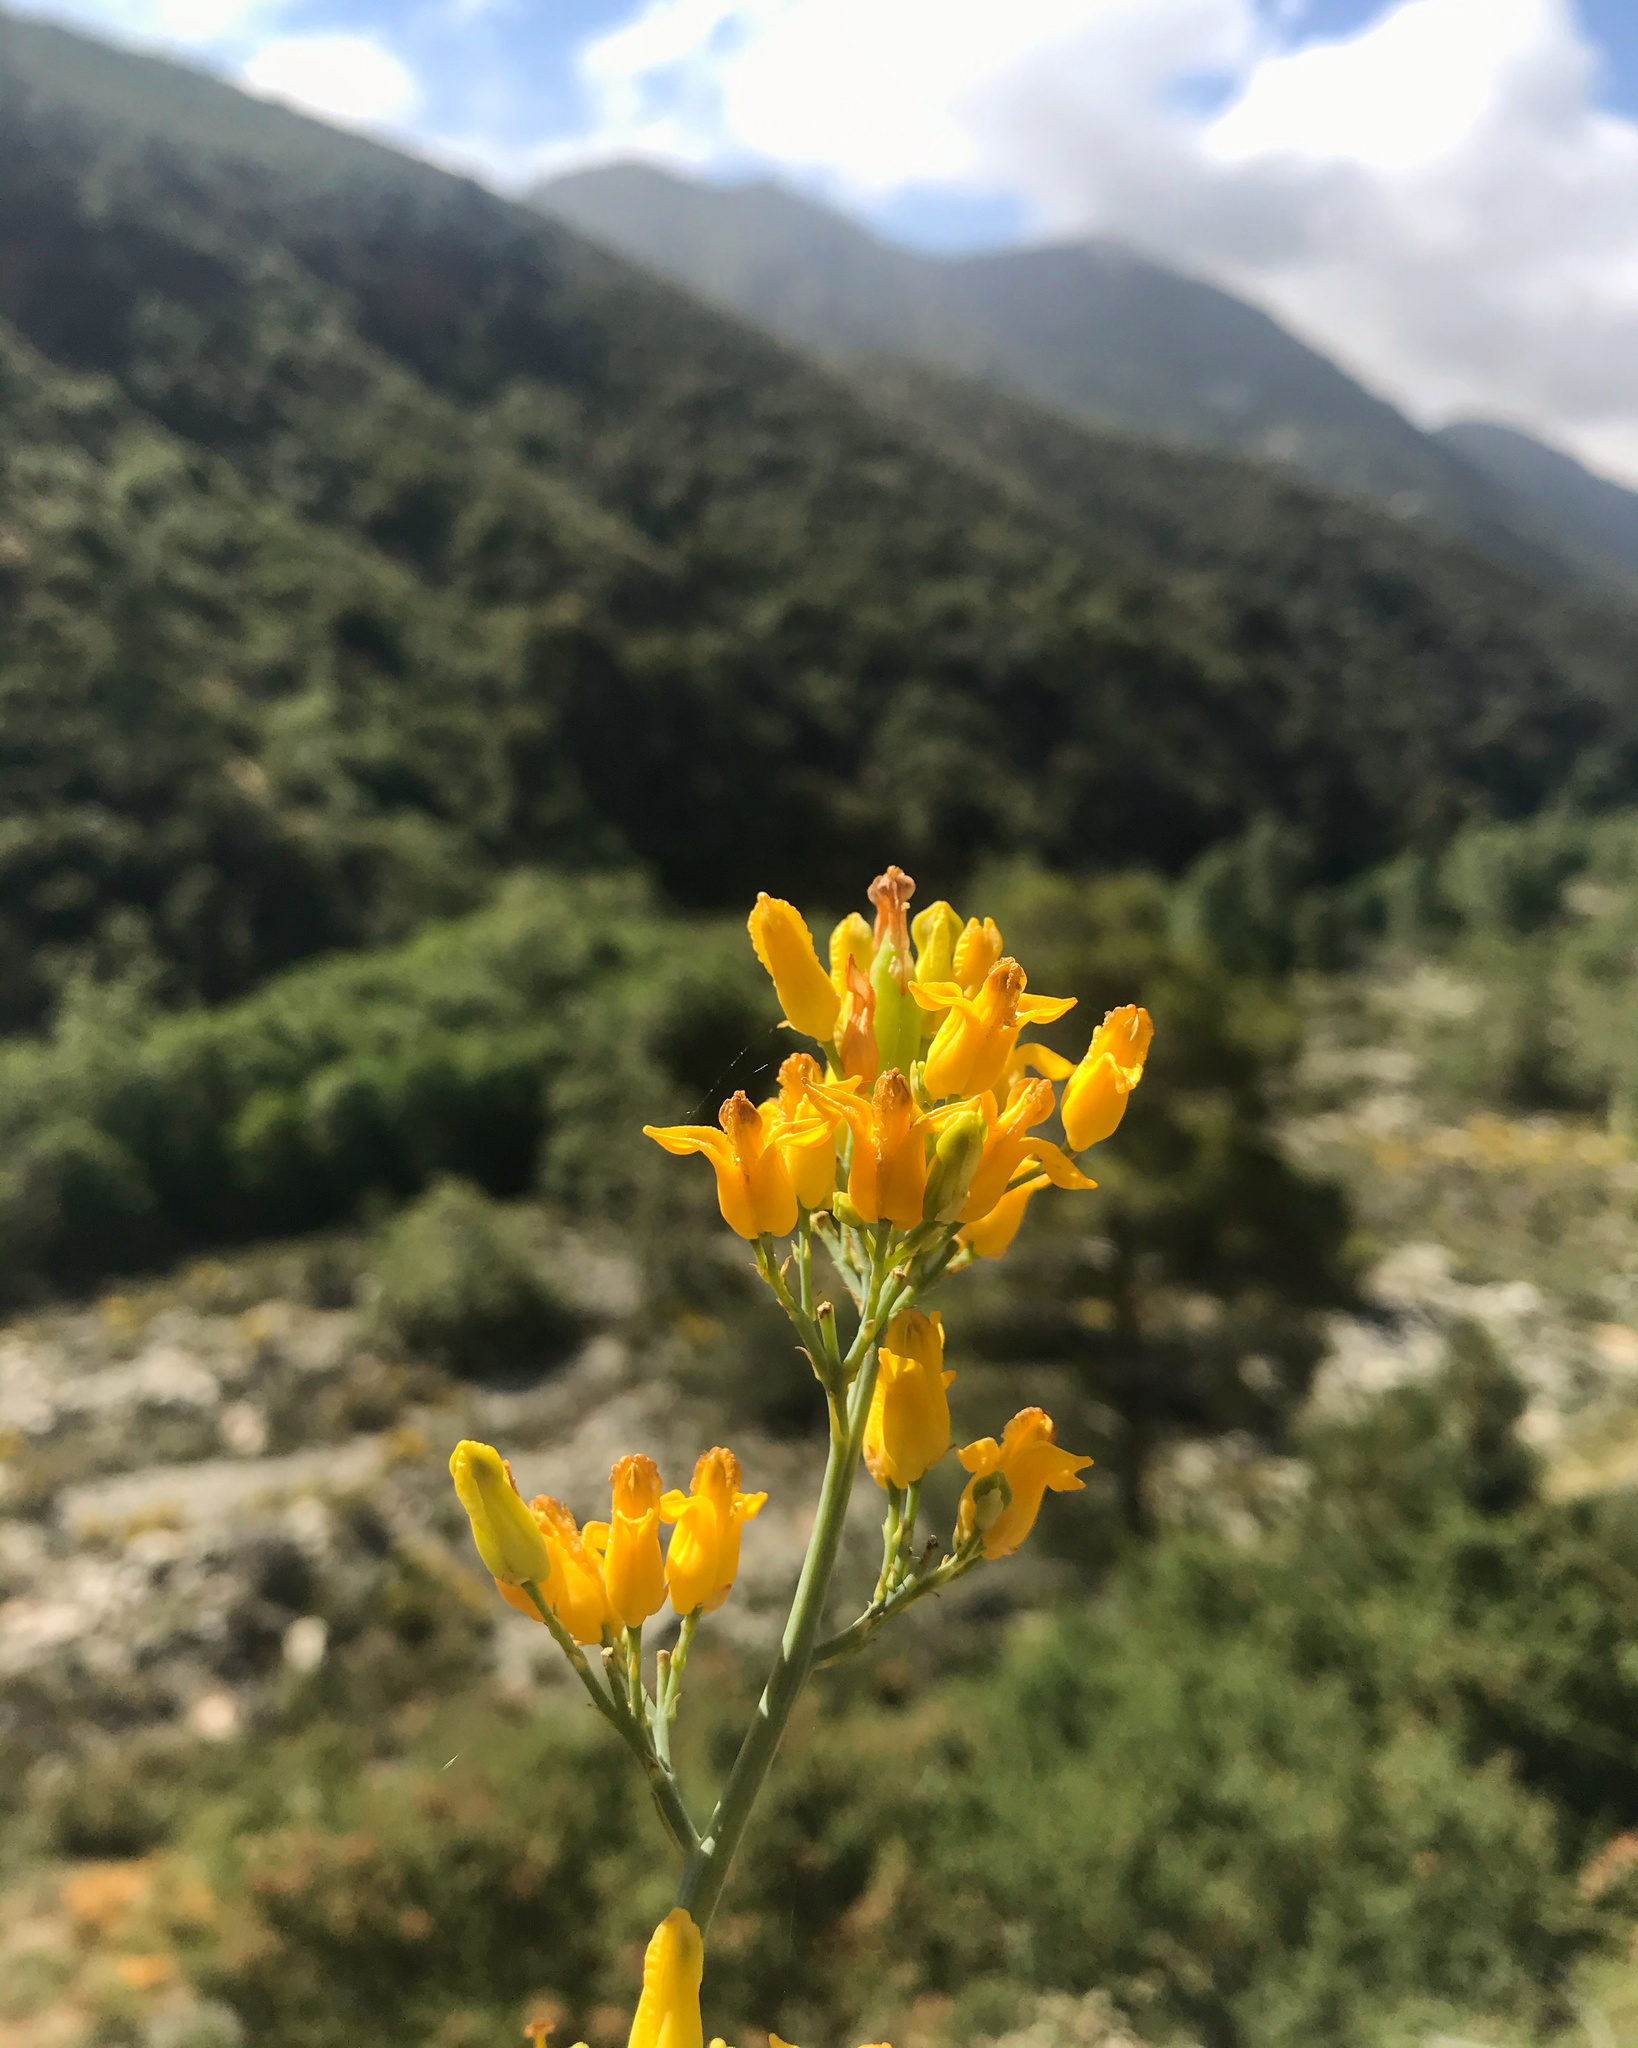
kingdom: Plantae
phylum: Tracheophyta
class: Magnoliopsida
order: Ranunculales
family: Papaveraceae
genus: Ehrendorferia
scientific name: Ehrendorferia chrysantha
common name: Golden eardrops
